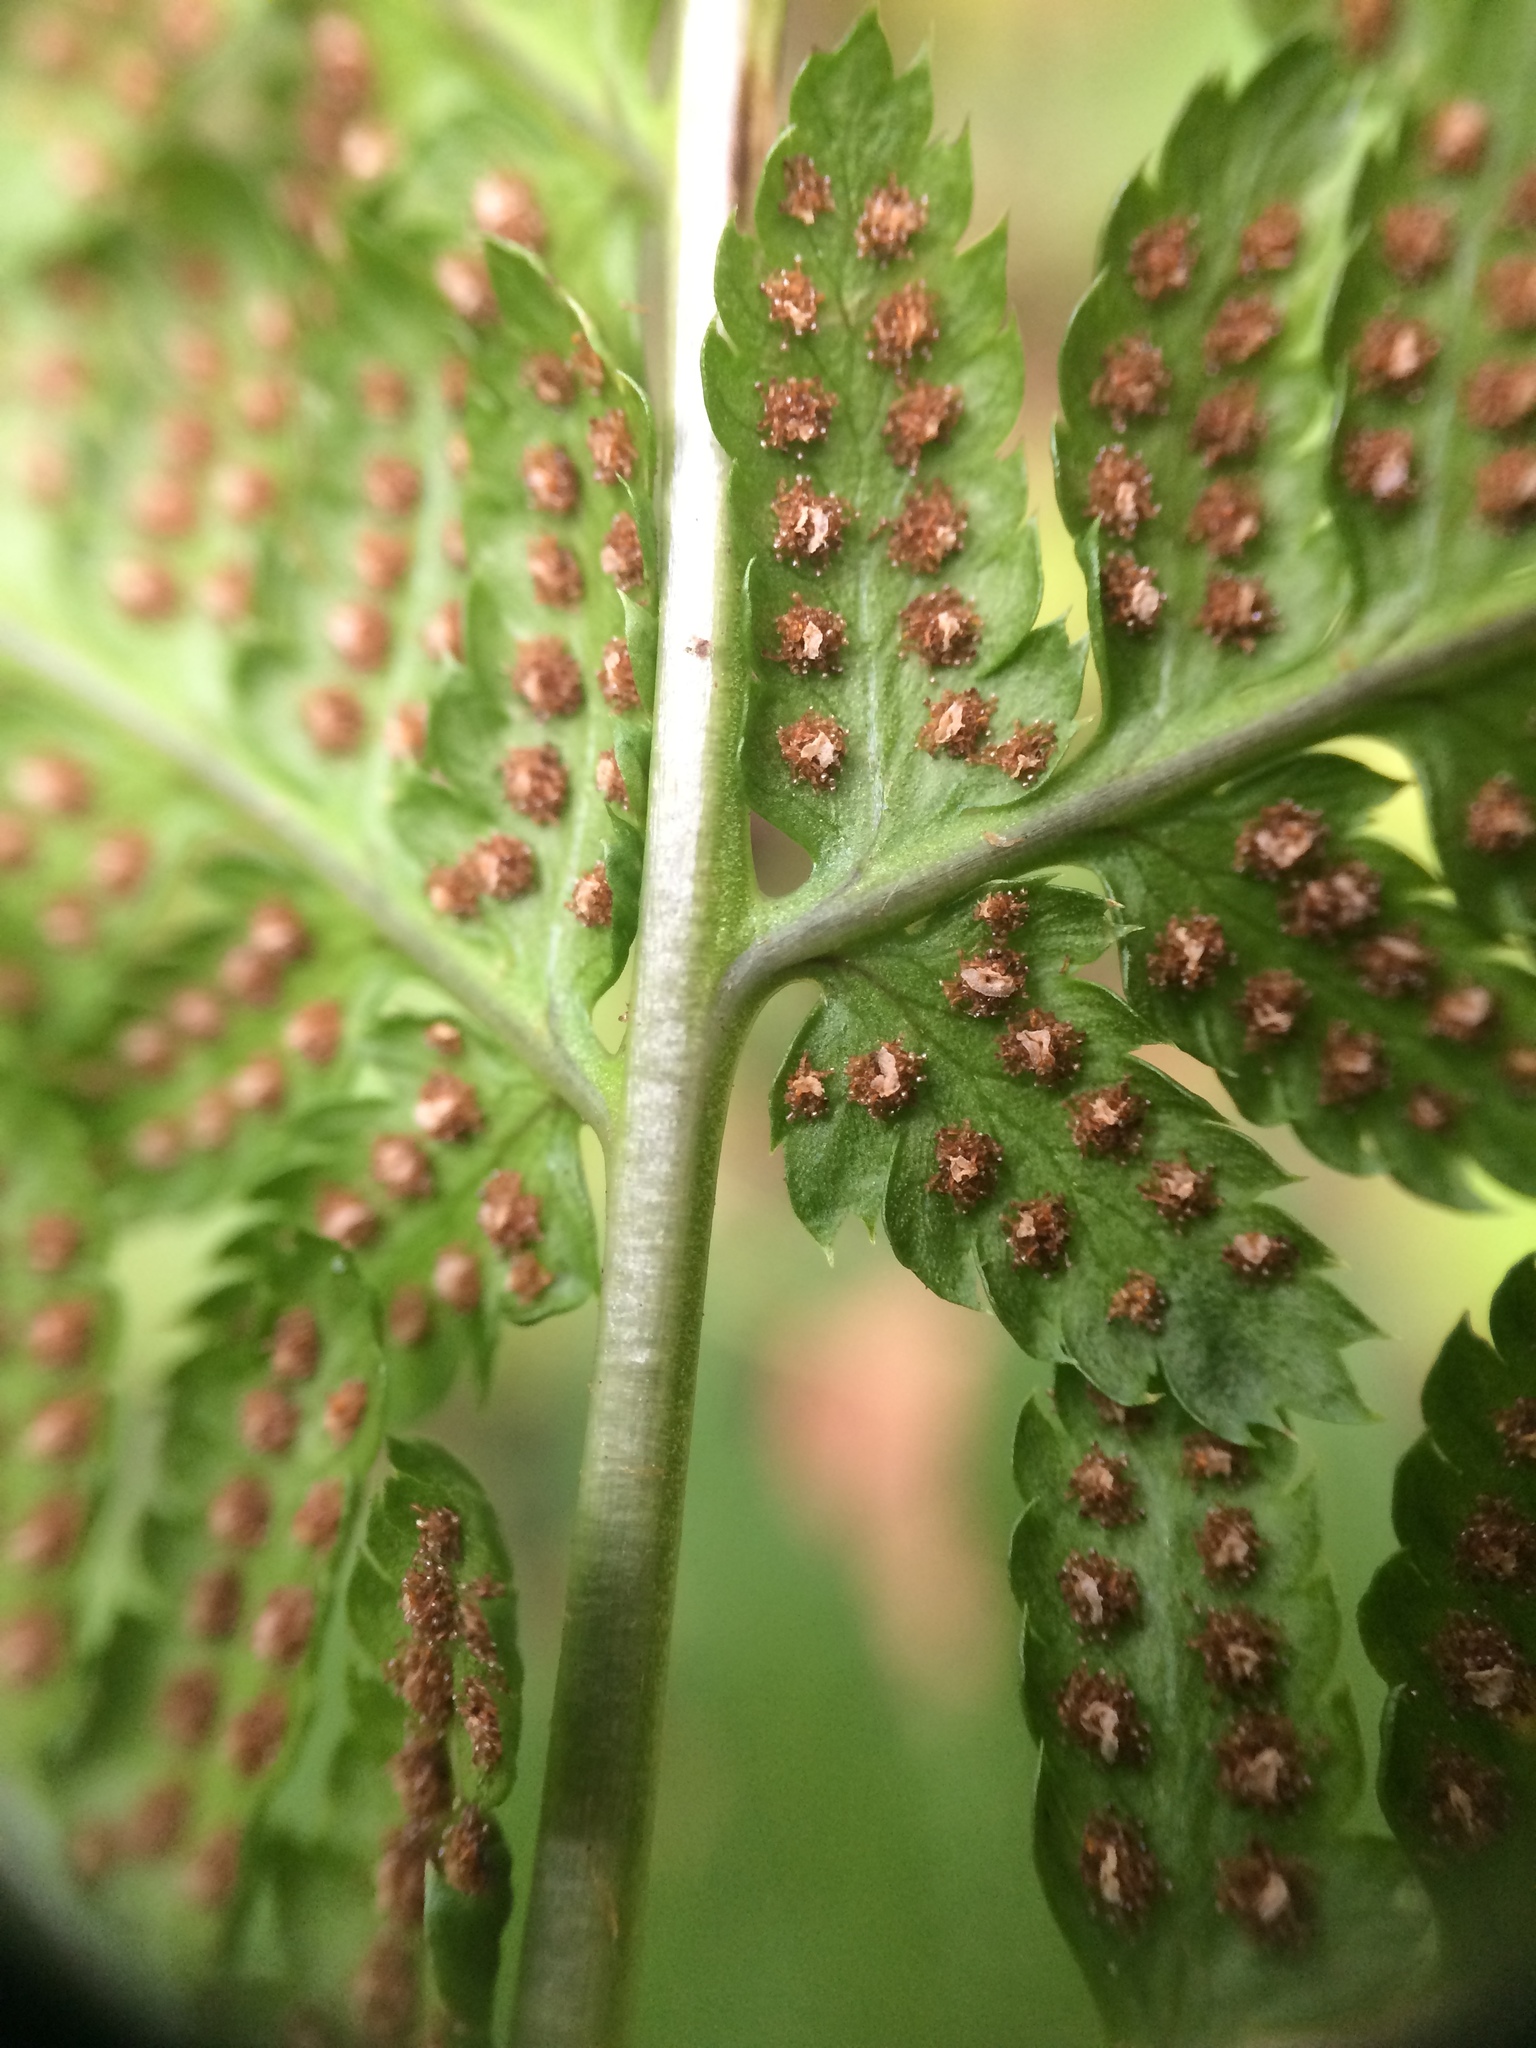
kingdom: Plantae
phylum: Tracheophyta
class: Polypodiopsida
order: Polypodiales
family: Dryopteridaceae
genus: Dryopteris
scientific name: Dryopteris carthusiana
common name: Narrow buckler-fern
